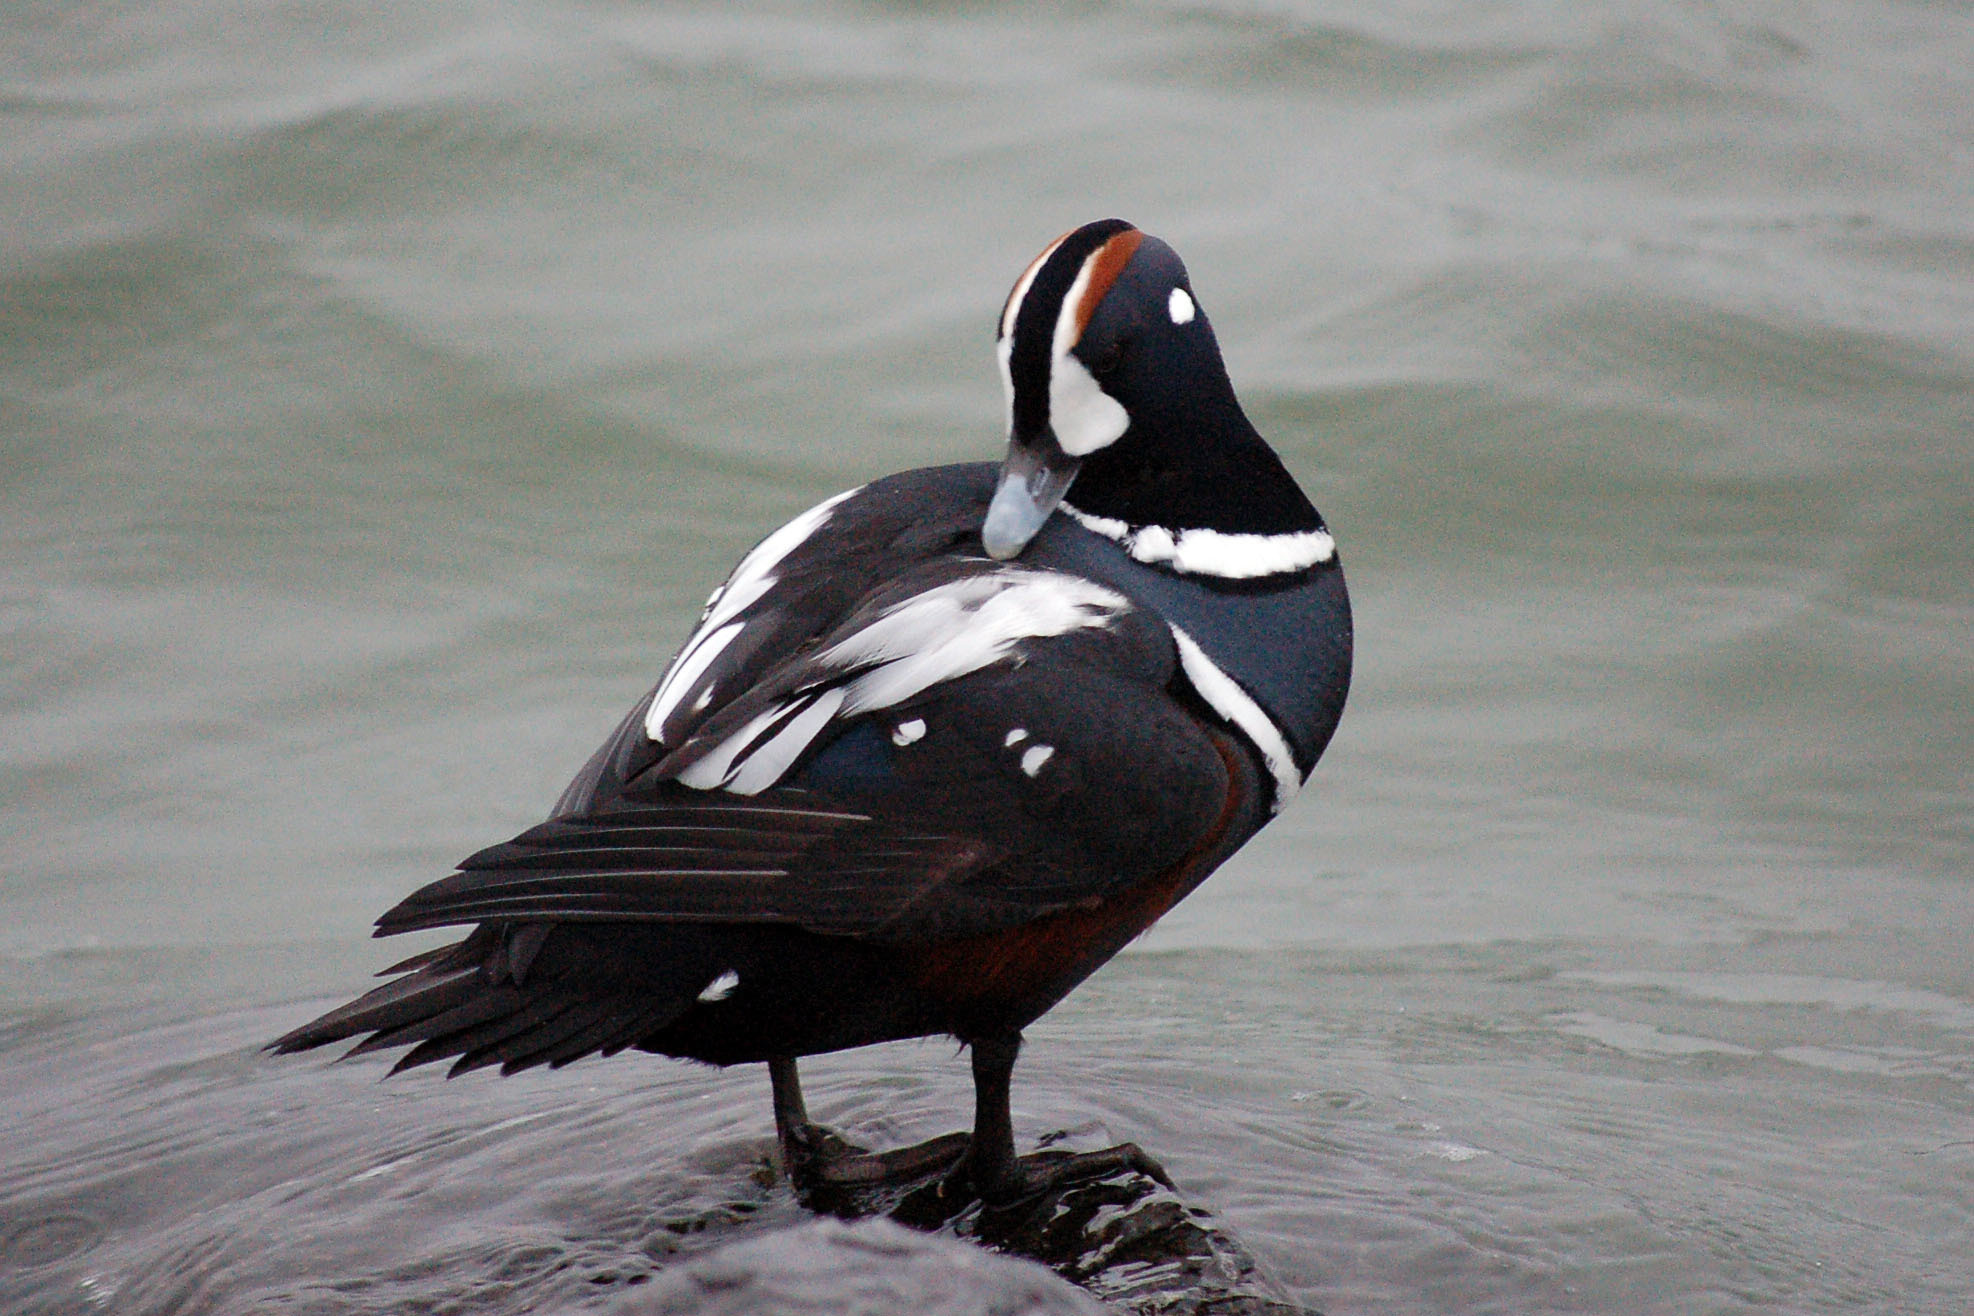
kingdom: Animalia
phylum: Chordata
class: Aves
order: Anseriformes
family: Anatidae
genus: Histrionicus
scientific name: Histrionicus histrionicus
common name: Harlequin duck
